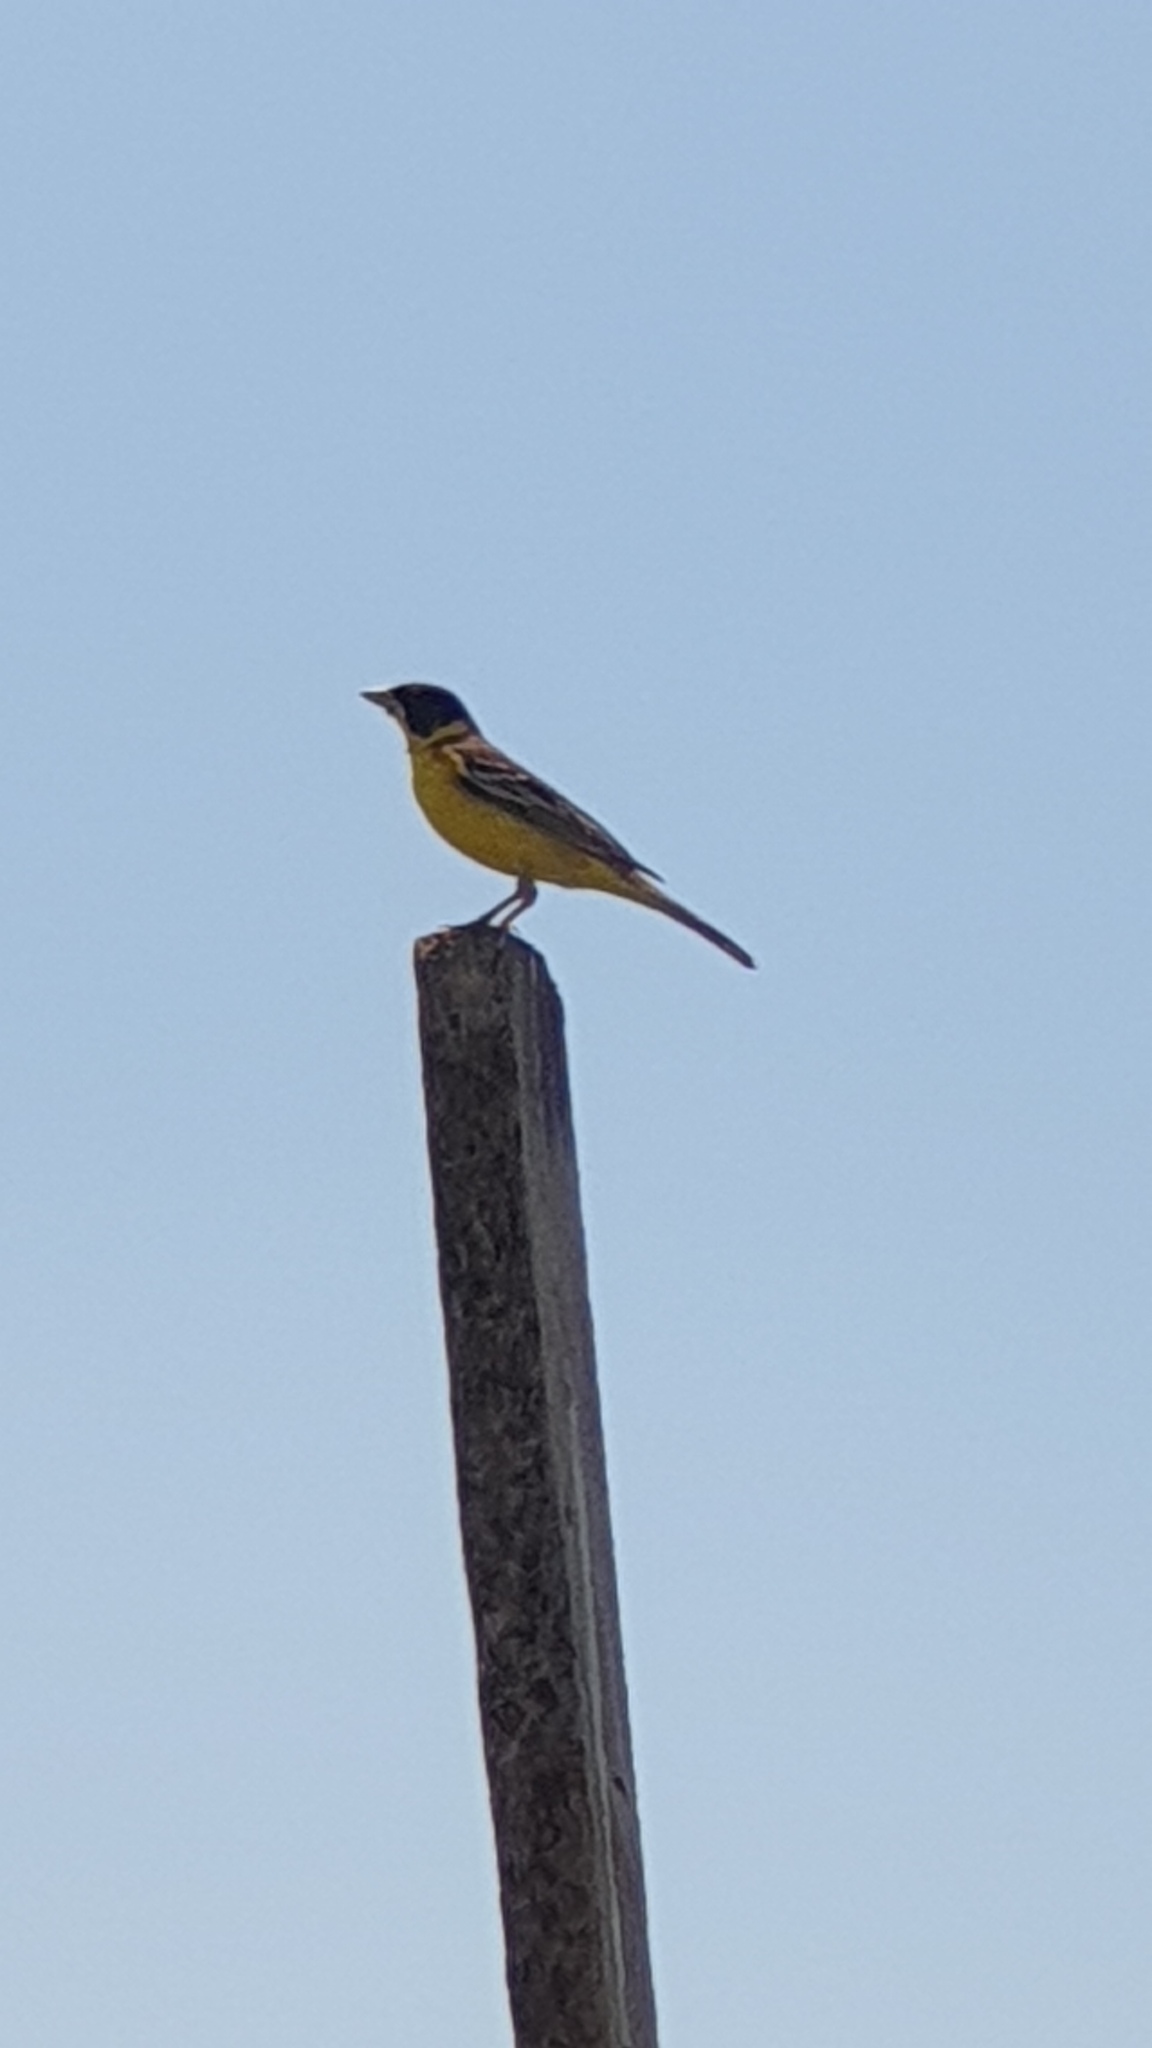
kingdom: Animalia
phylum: Chordata
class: Aves
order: Passeriformes
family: Emberizidae
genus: Emberiza
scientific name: Emberiza melanocephala
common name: Black-headed bunting
